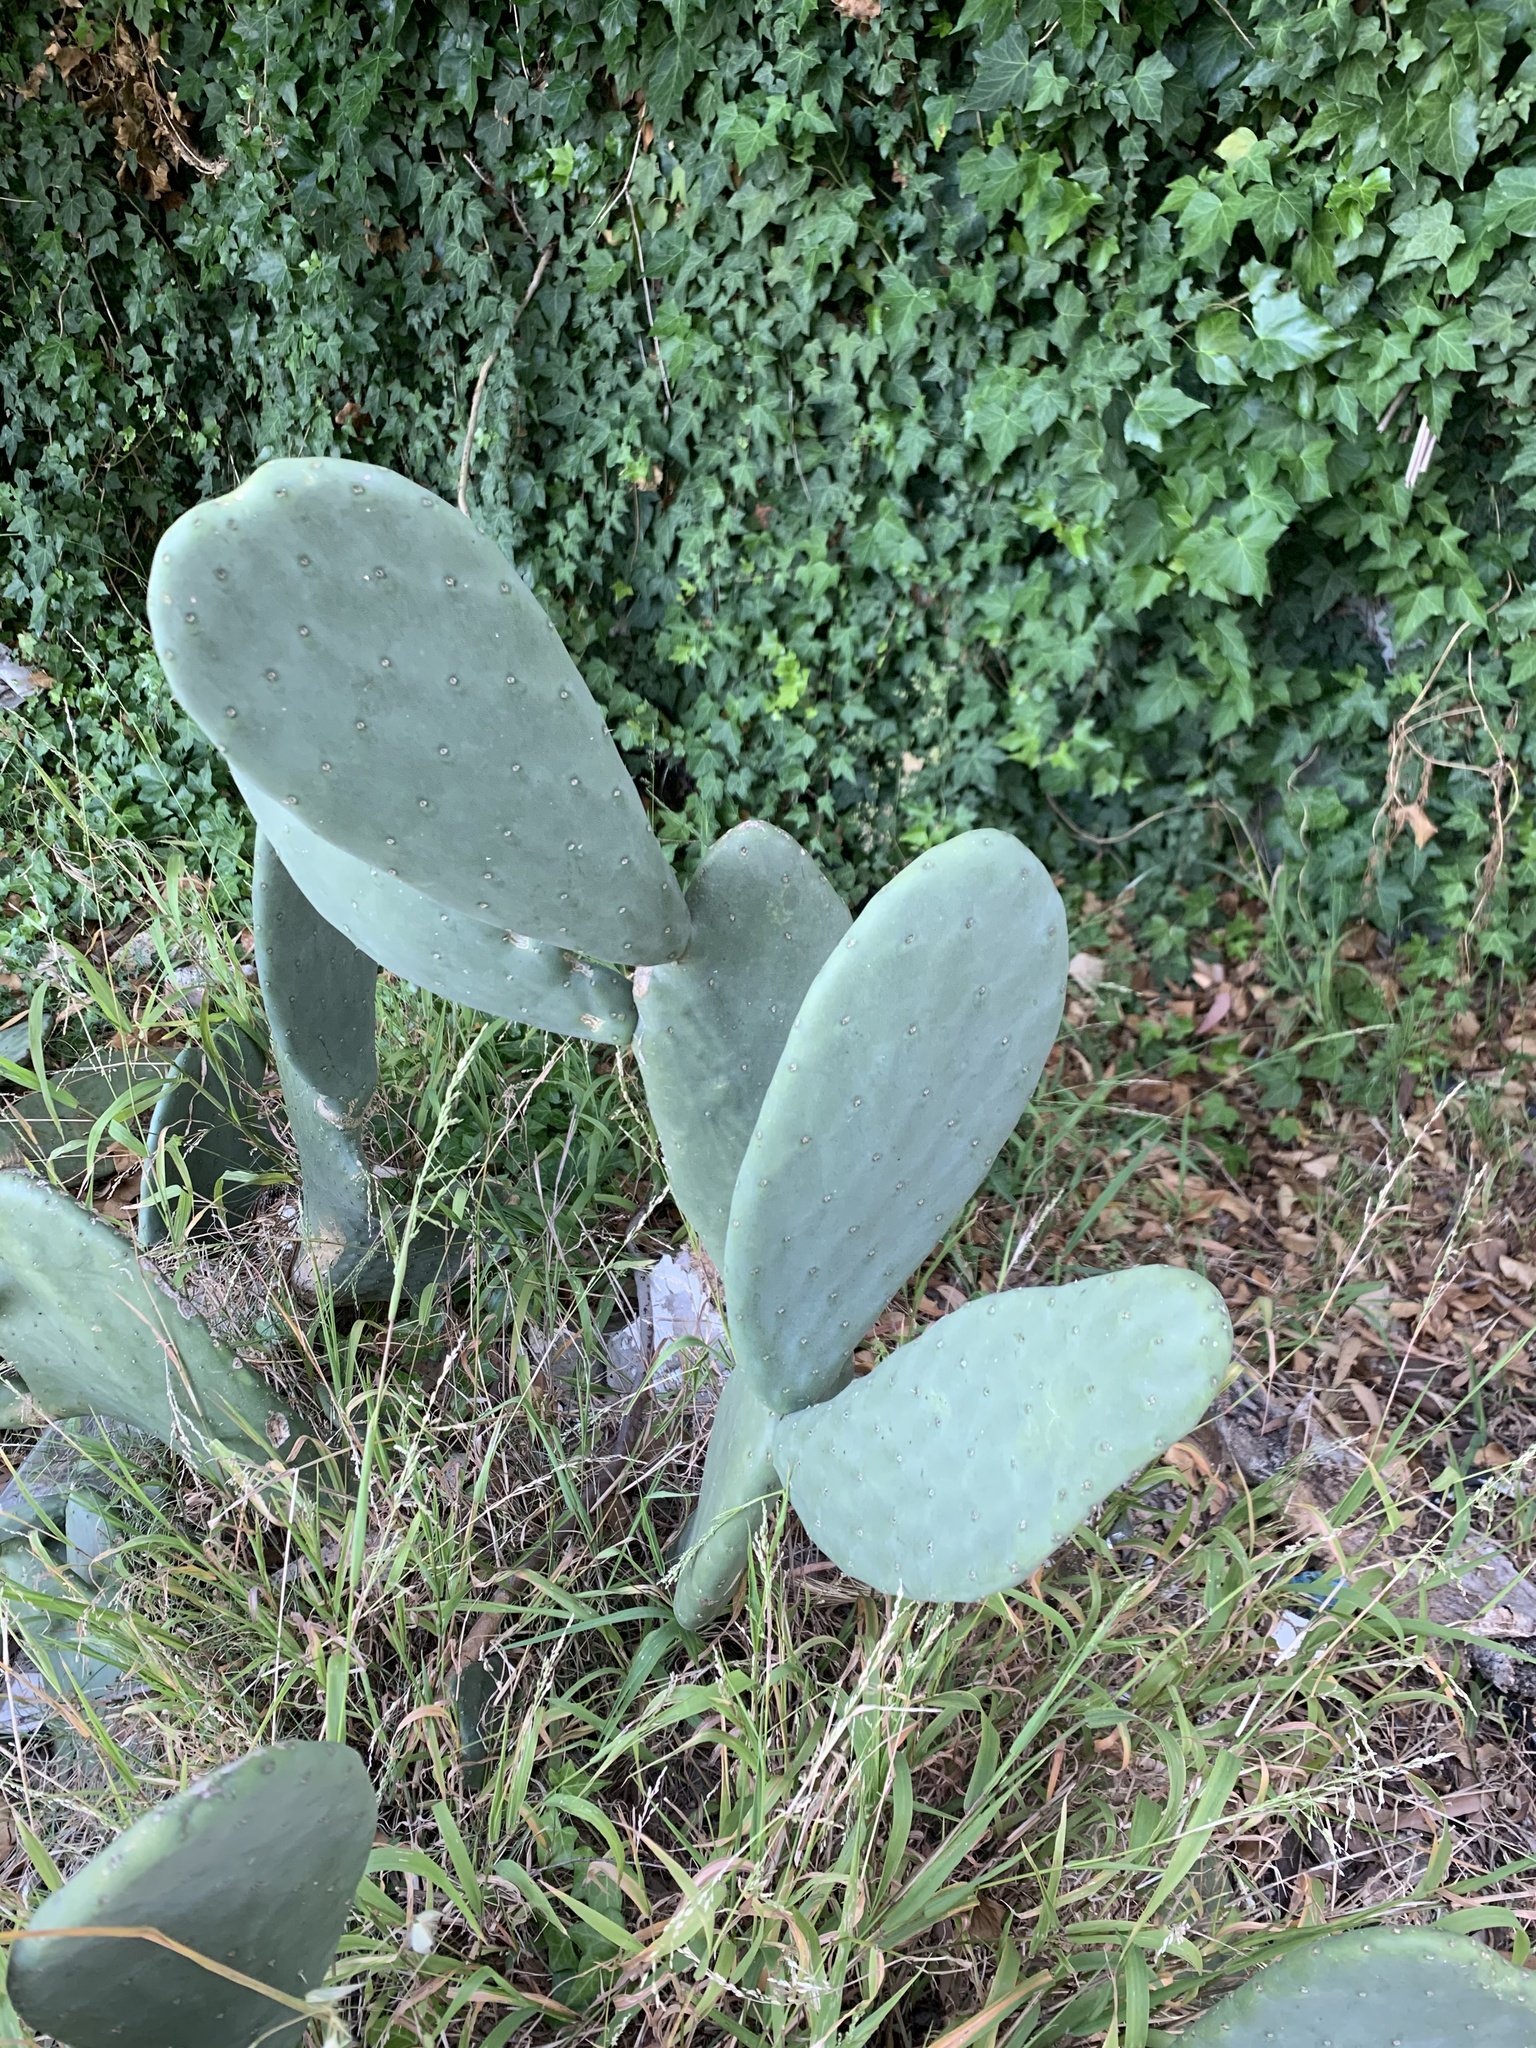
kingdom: Plantae
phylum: Tracheophyta
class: Magnoliopsida
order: Caryophyllales
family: Cactaceae
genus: Opuntia
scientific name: Opuntia ficus-indica
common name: Barbary fig
